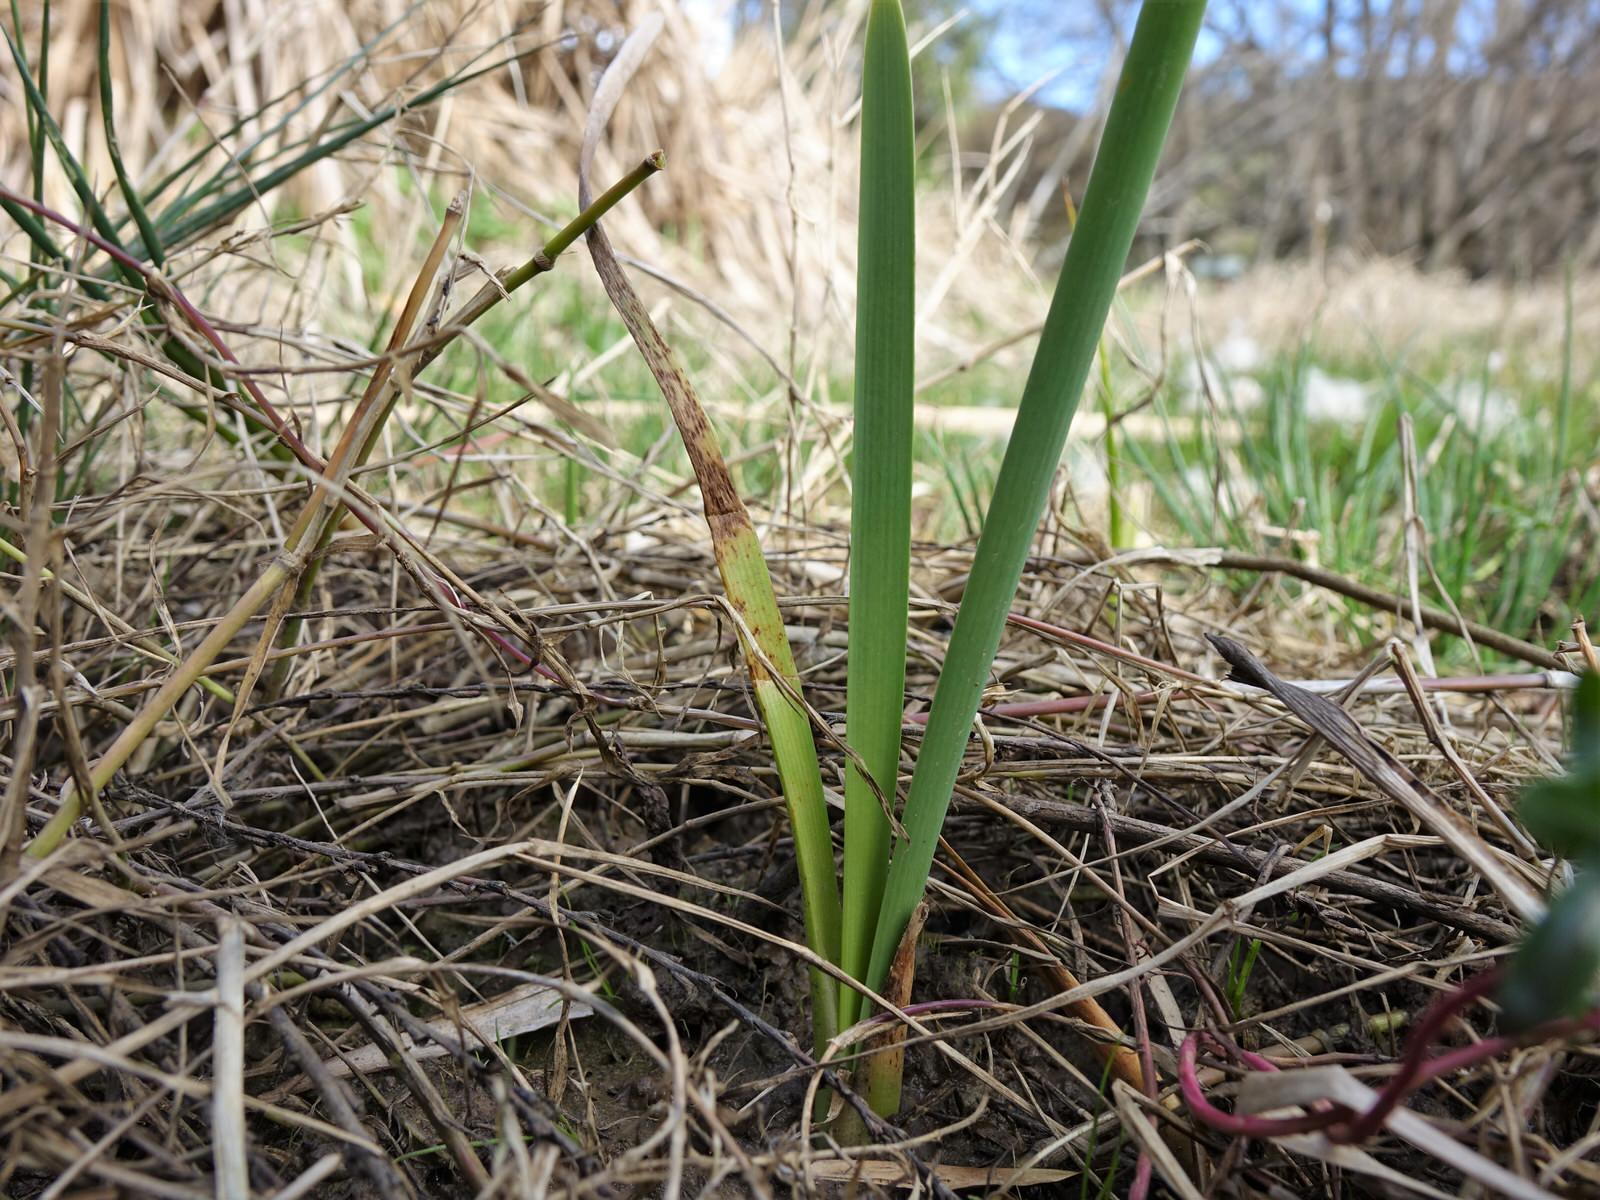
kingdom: Plantae
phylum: Tracheophyta
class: Liliopsida
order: Poales
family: Typhaceae
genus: Typha
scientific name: Typha orientalis
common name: Bullrush
